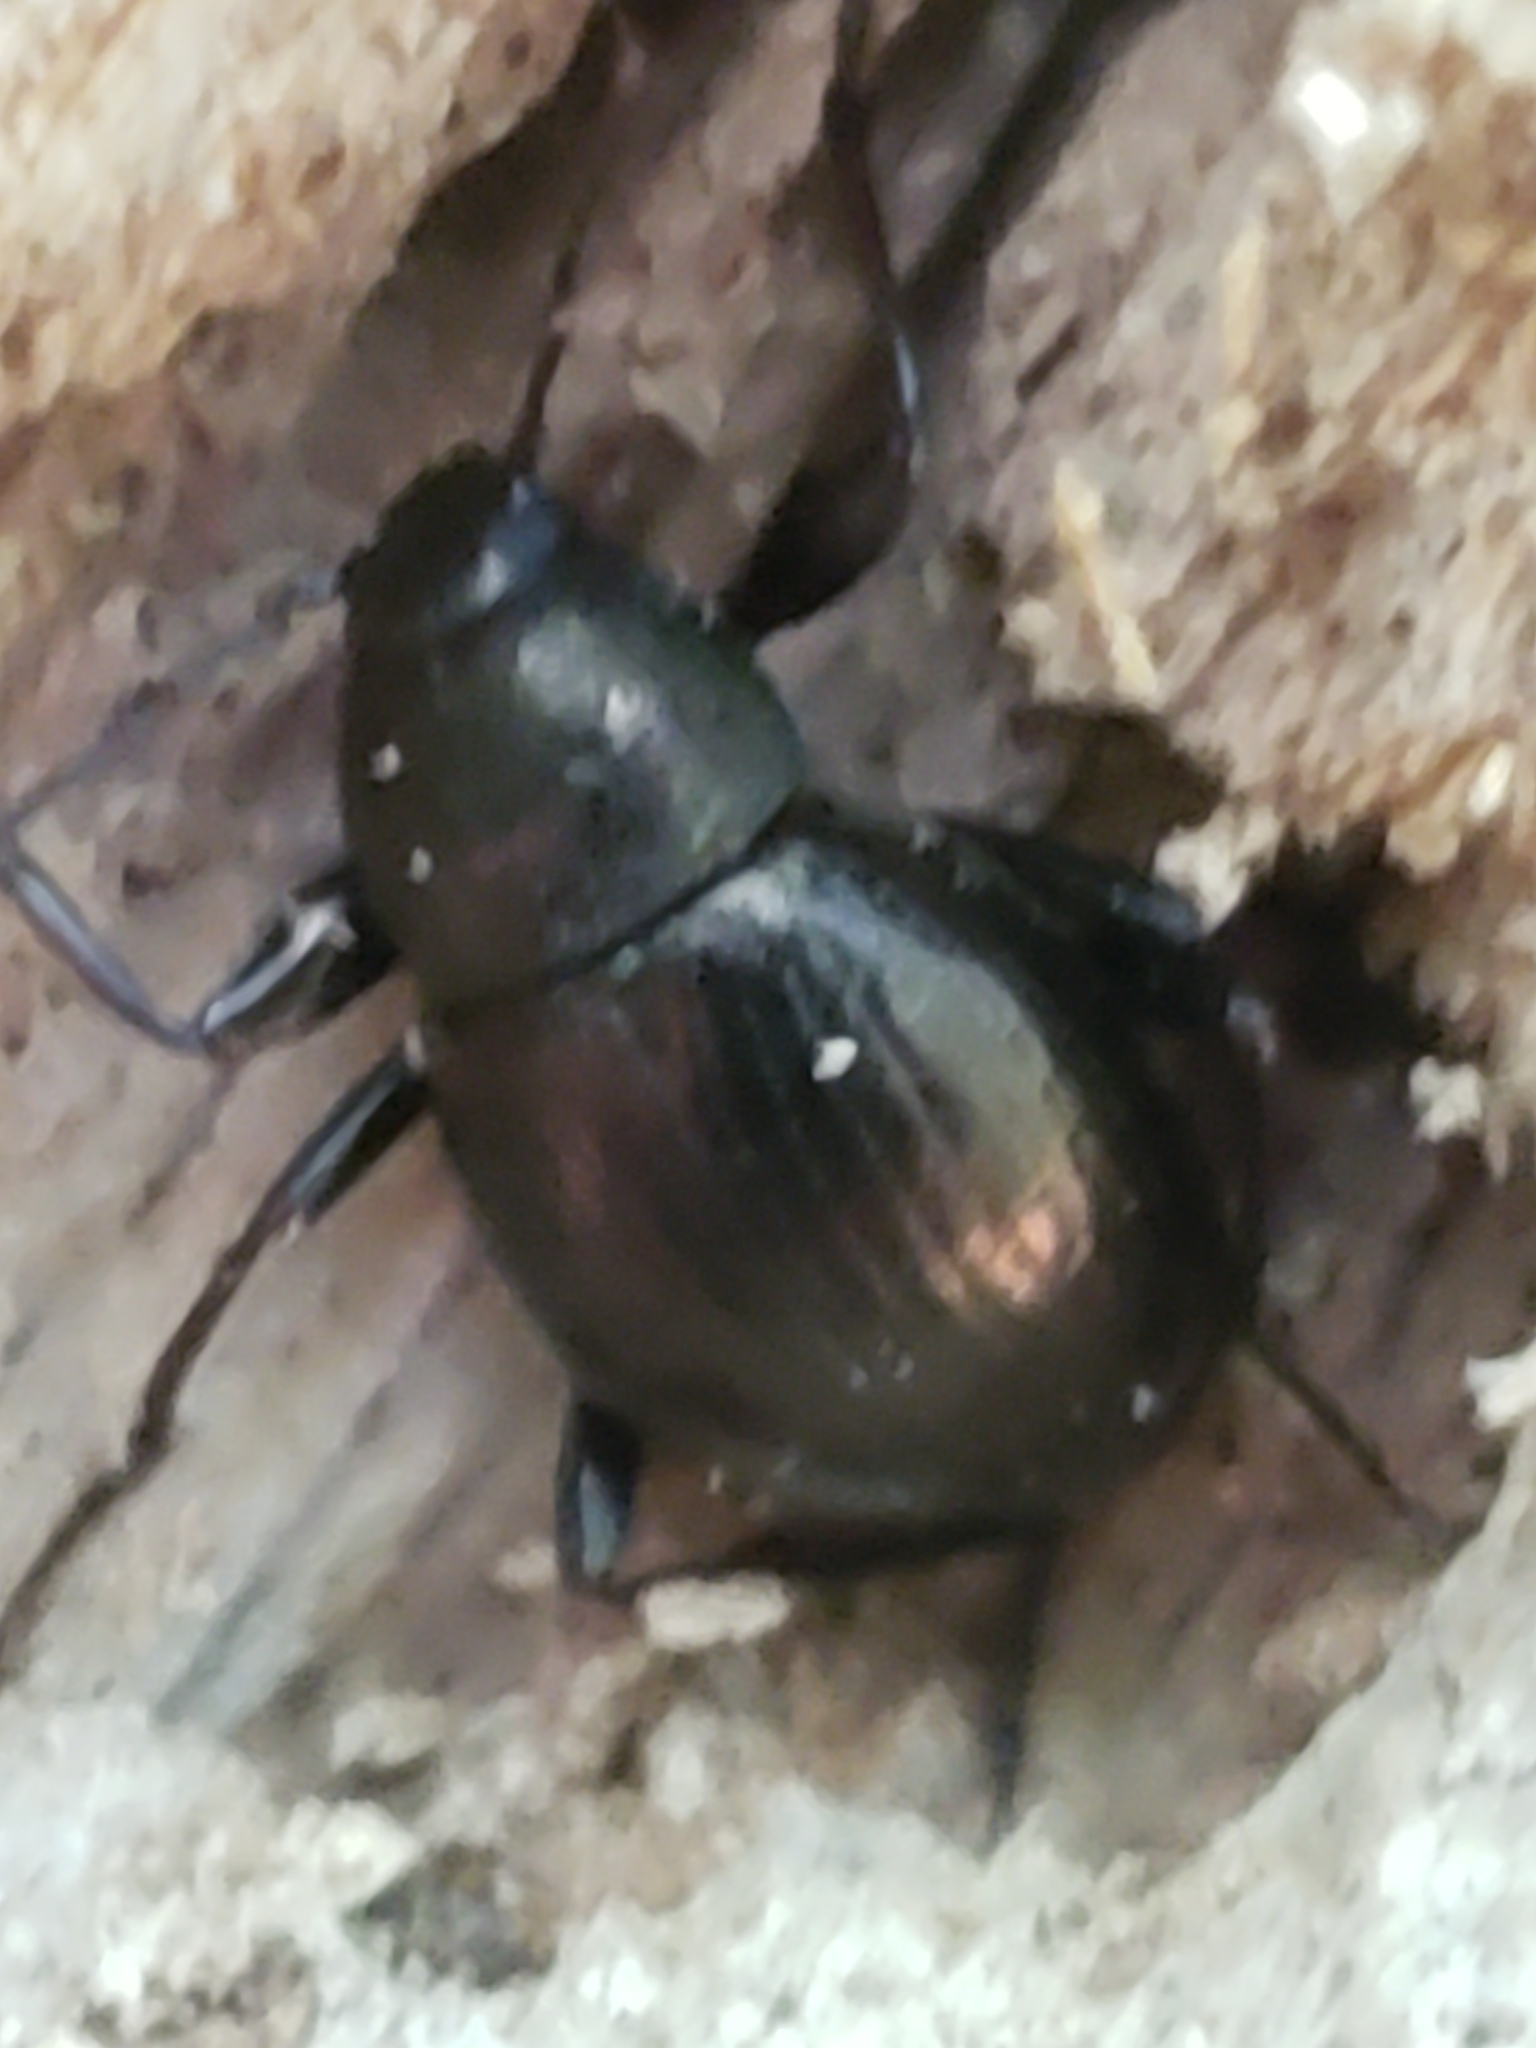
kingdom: Animalia
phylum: Arthropoda
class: Insecta
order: Coleoptera
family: Tenebrionidae
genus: Meracantha
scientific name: Meracantha contracta
